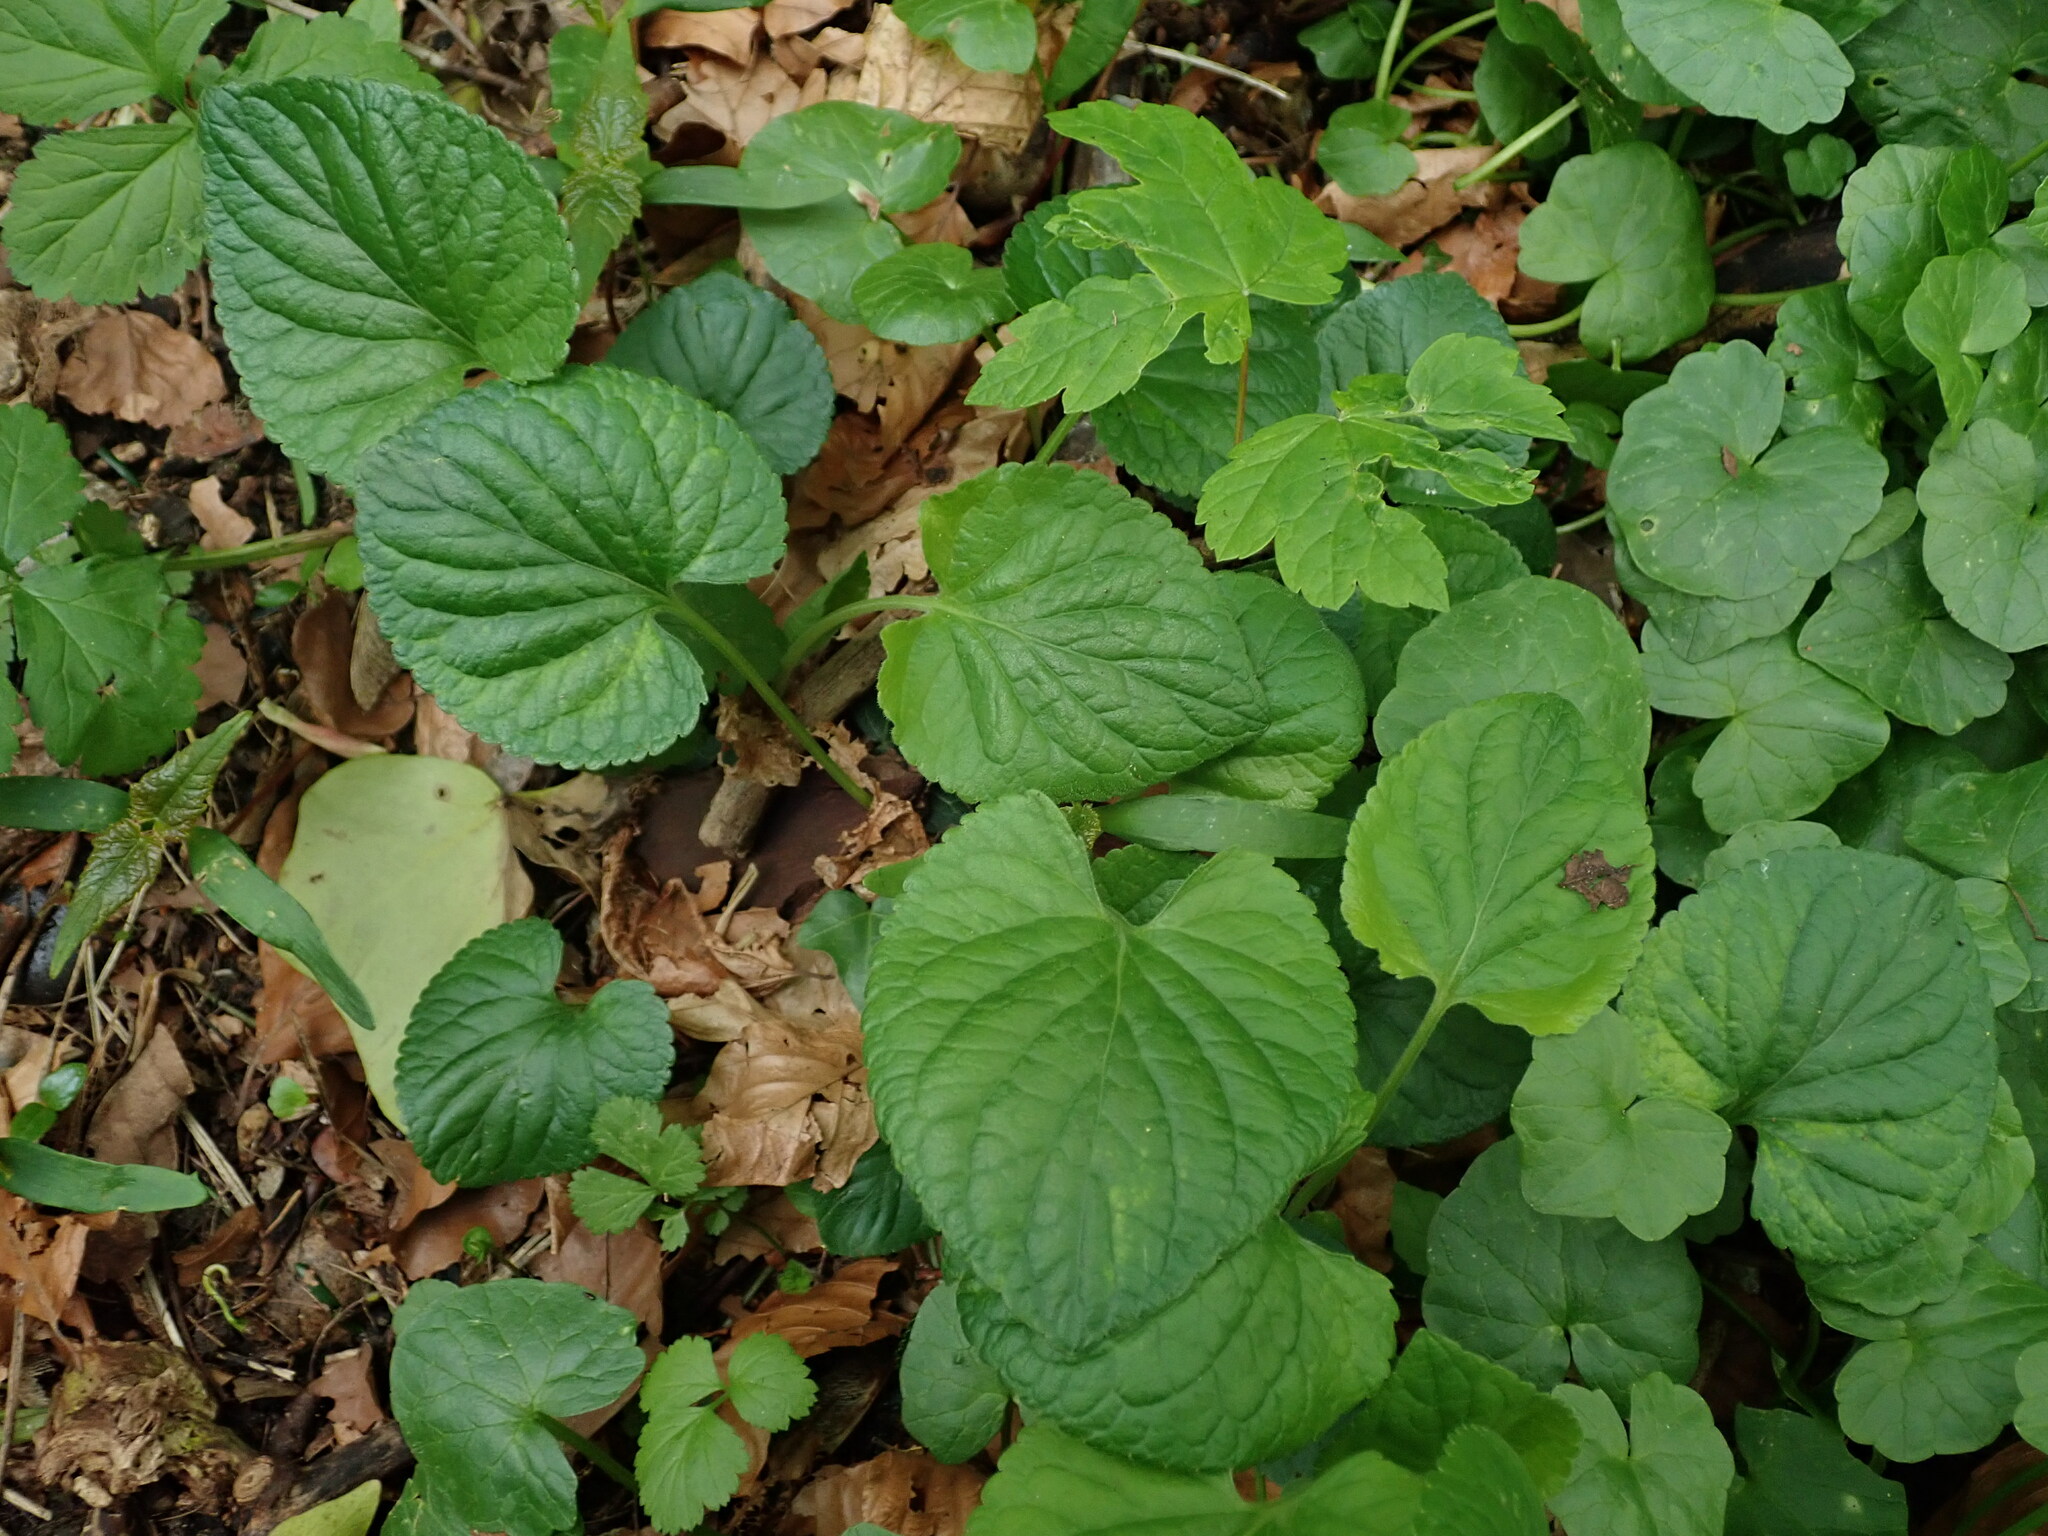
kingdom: Plantae
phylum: Tracheophyta
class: Magnoliopsida
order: Malpighiales
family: Violaceae
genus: Viola
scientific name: Viola odorata
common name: Sweet violet
